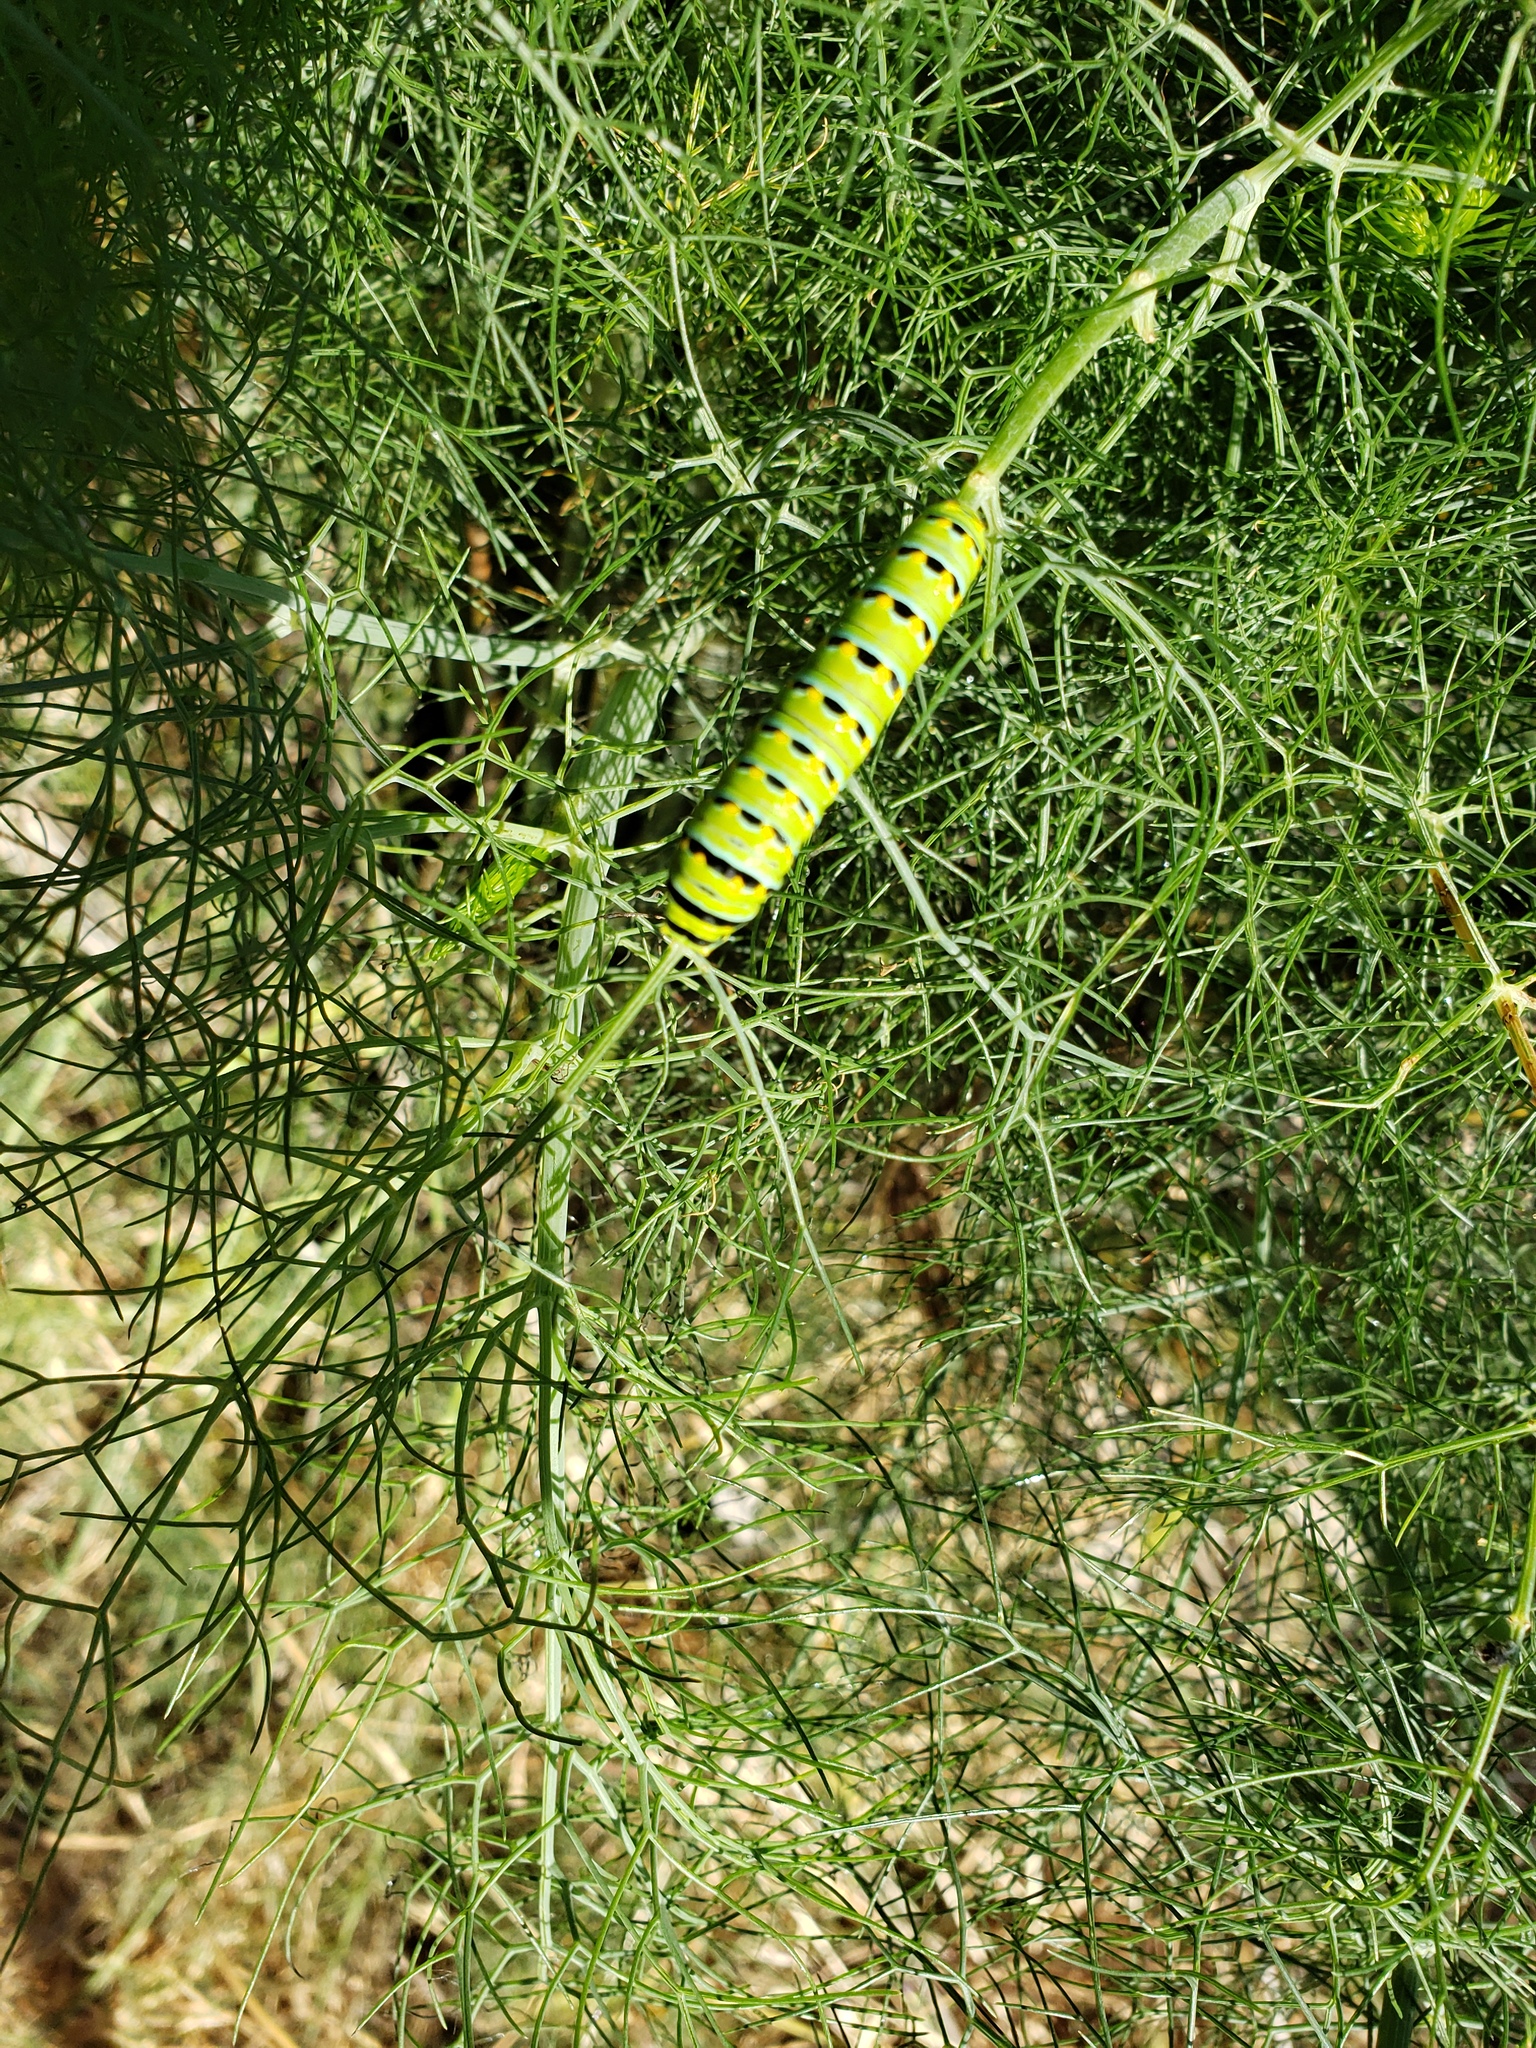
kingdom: Animalia
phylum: Arthropoda
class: Insecta
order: Lepidoptera
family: Papilionidae
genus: Papilio
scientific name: Papilio zelicaon
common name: Anise swallowtail
